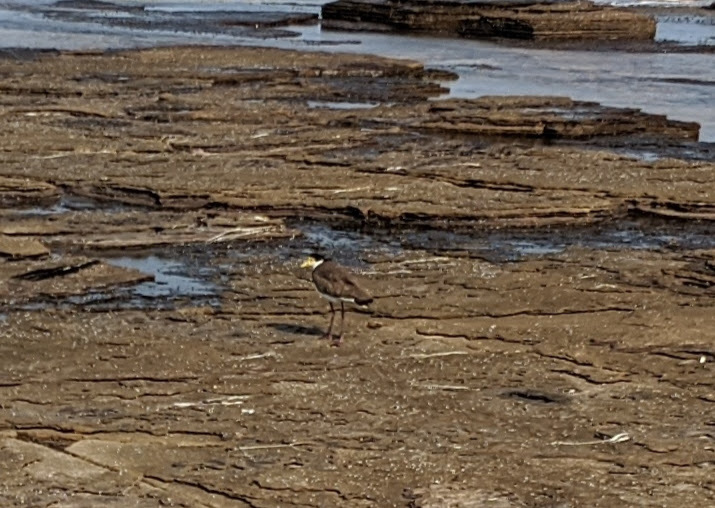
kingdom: Animalia
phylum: Chordata
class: Aves
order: Charadriiformes
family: Charadriidae
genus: Vanellus
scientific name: Vanellus miles
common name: Masked lapwing
